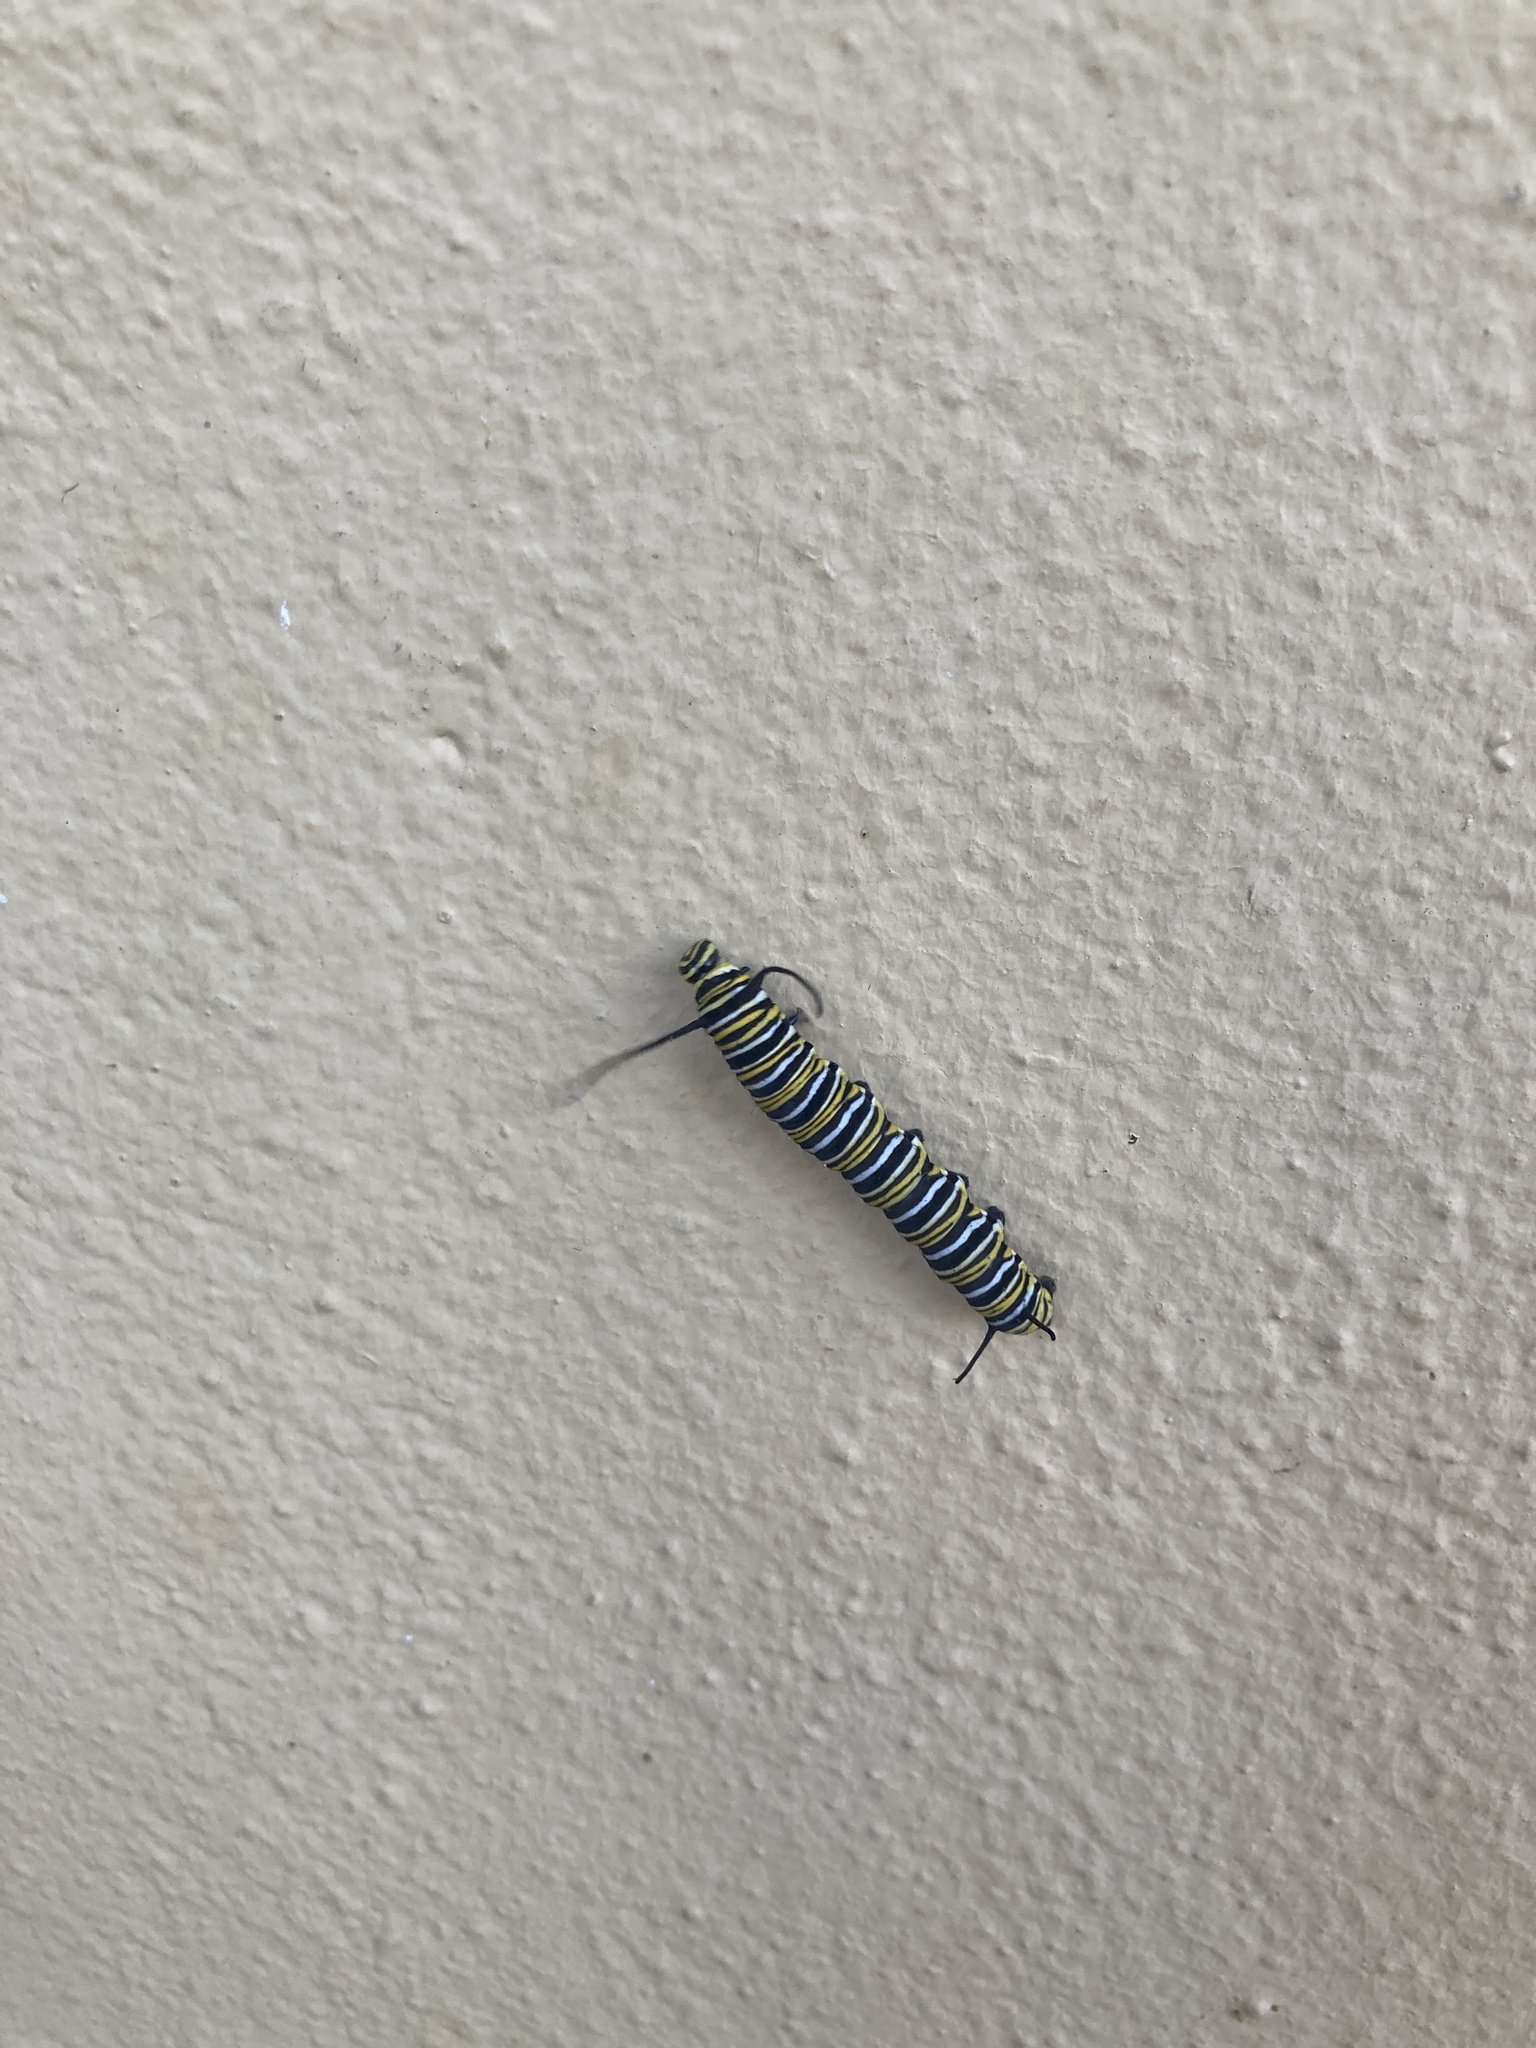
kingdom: Animalia
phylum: Arthropoda
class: Insecta
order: Lepidoptera
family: Nymphalidae
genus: Danaus
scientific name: Danaus plexippus
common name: Monarch
